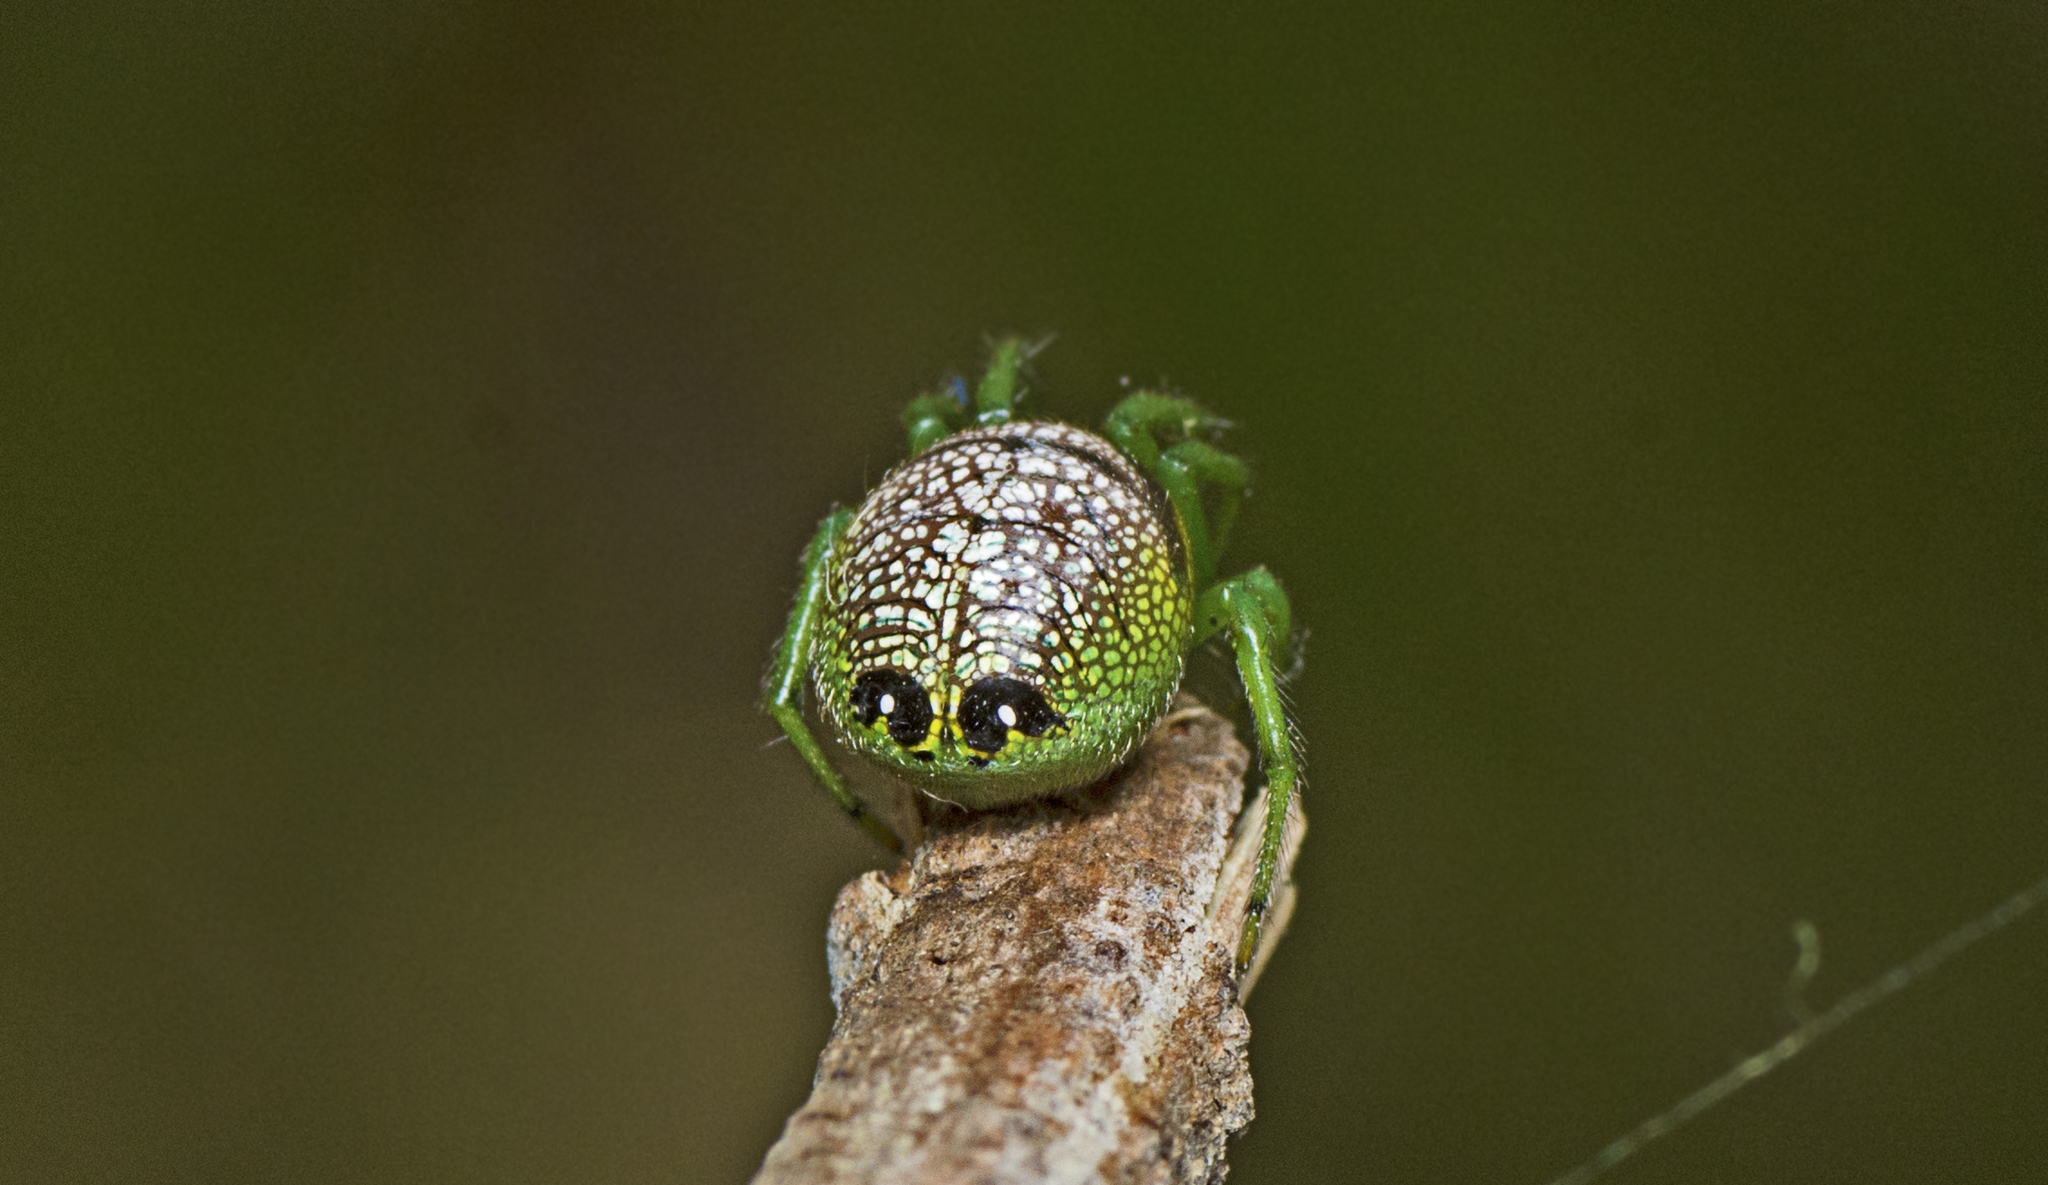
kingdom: Animalia
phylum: Arthropoda
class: Arachnida
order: Araneae
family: Araneidae
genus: Bijoaraneus
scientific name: Bijoaraneus praesignis
